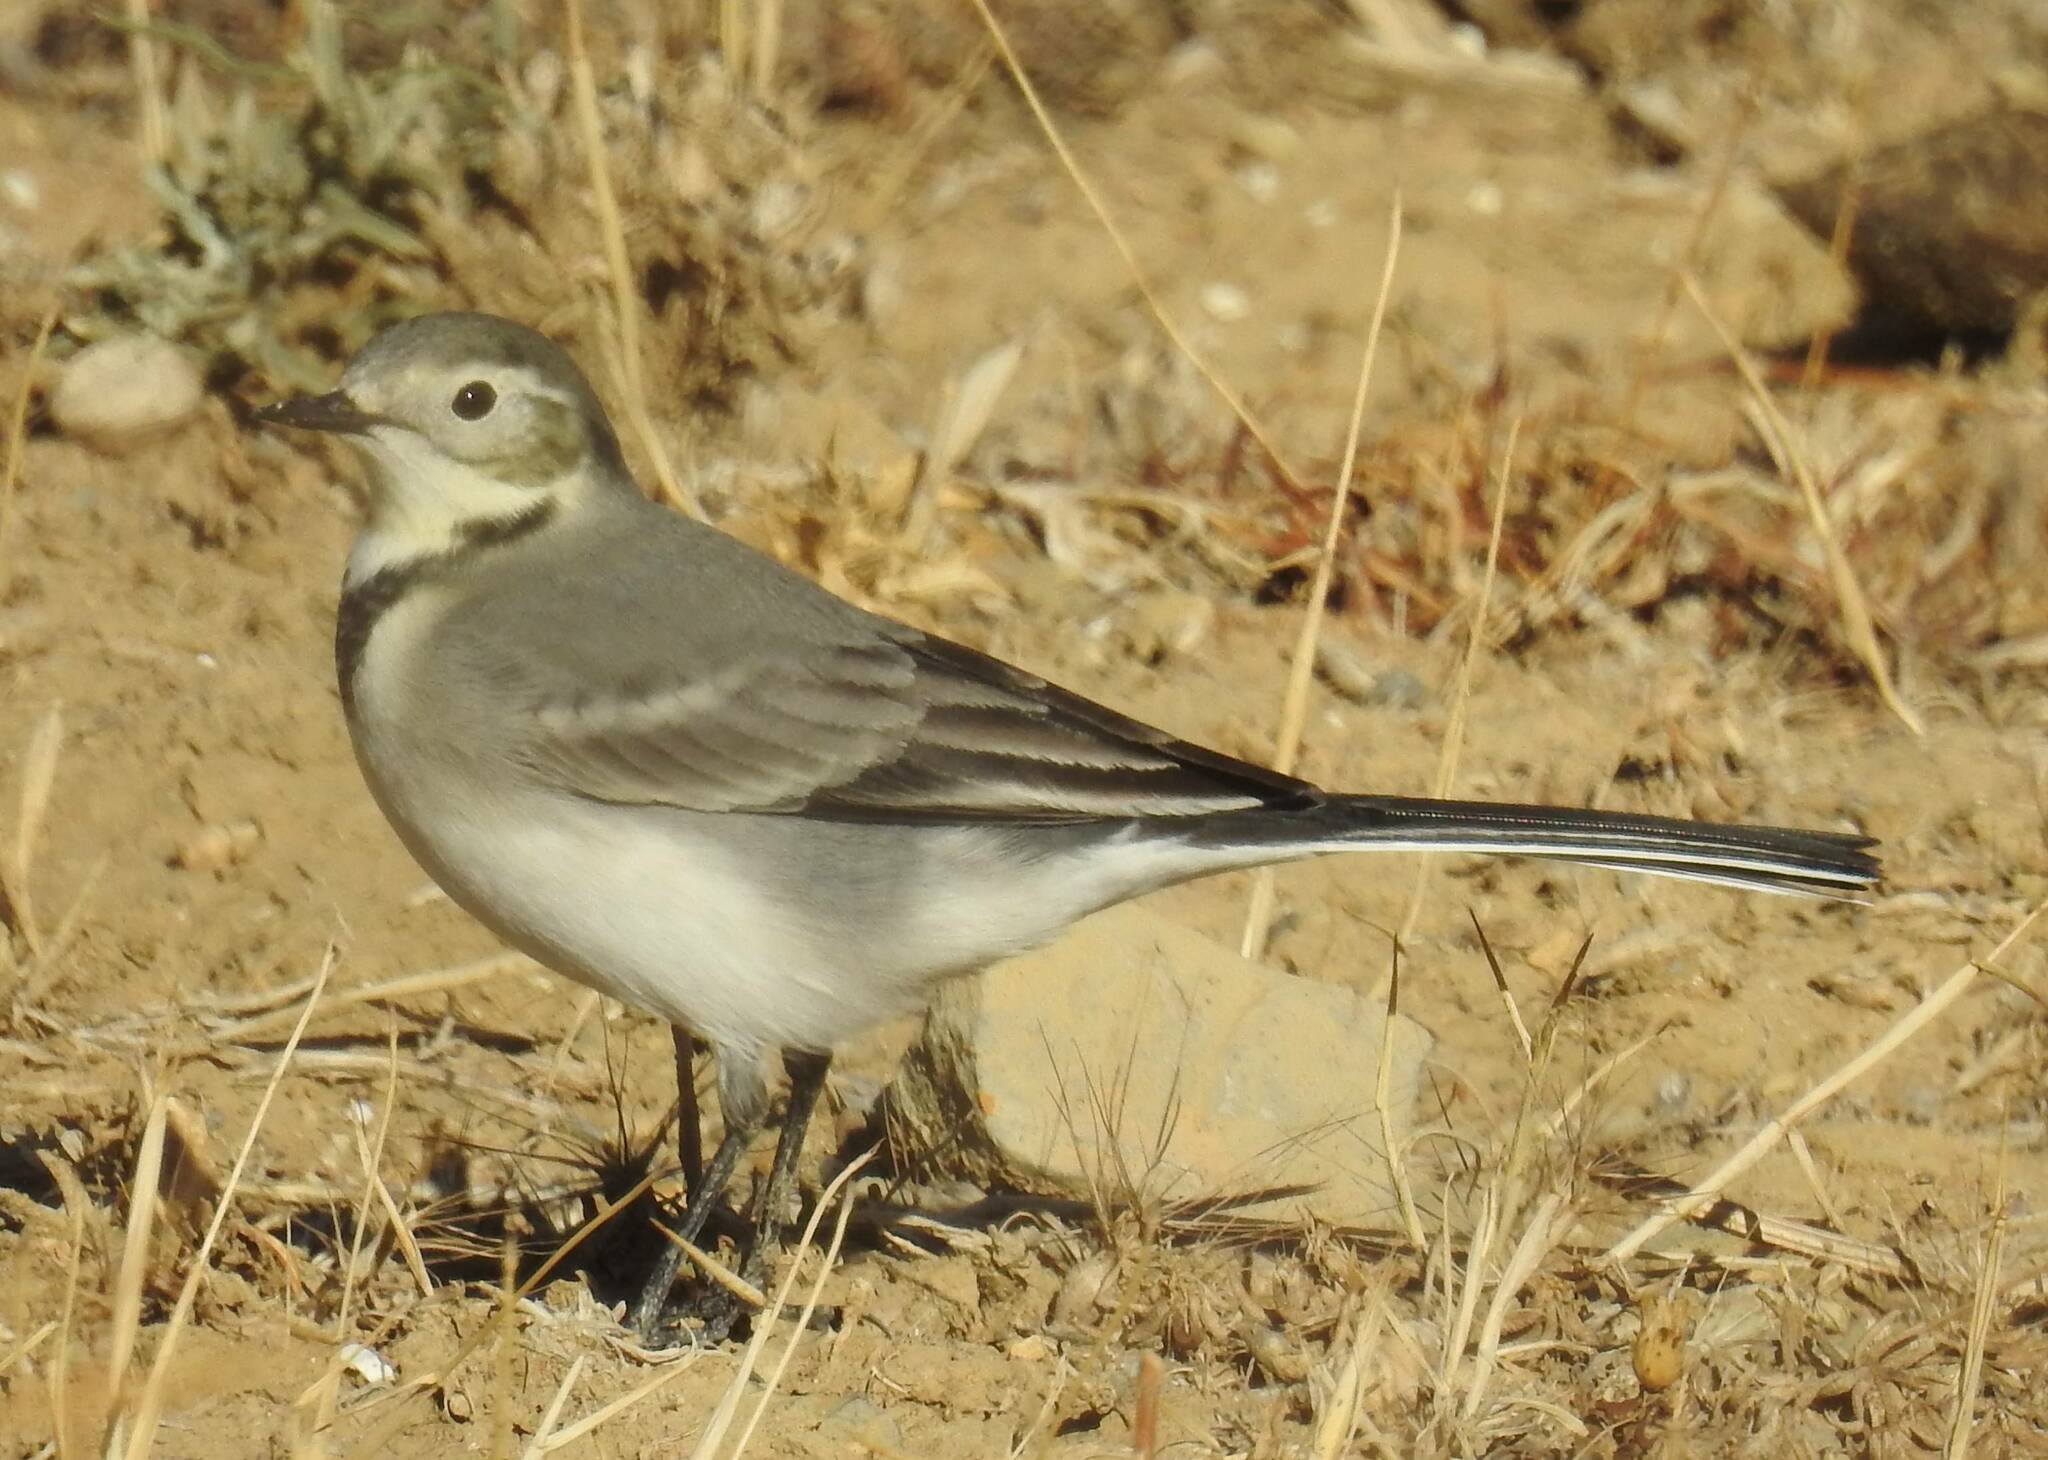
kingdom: Animalia
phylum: Chordata
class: Aves
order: Passeriformes
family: Motacillidae
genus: Motacilla
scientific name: Motacilla alba
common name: White wagtail
